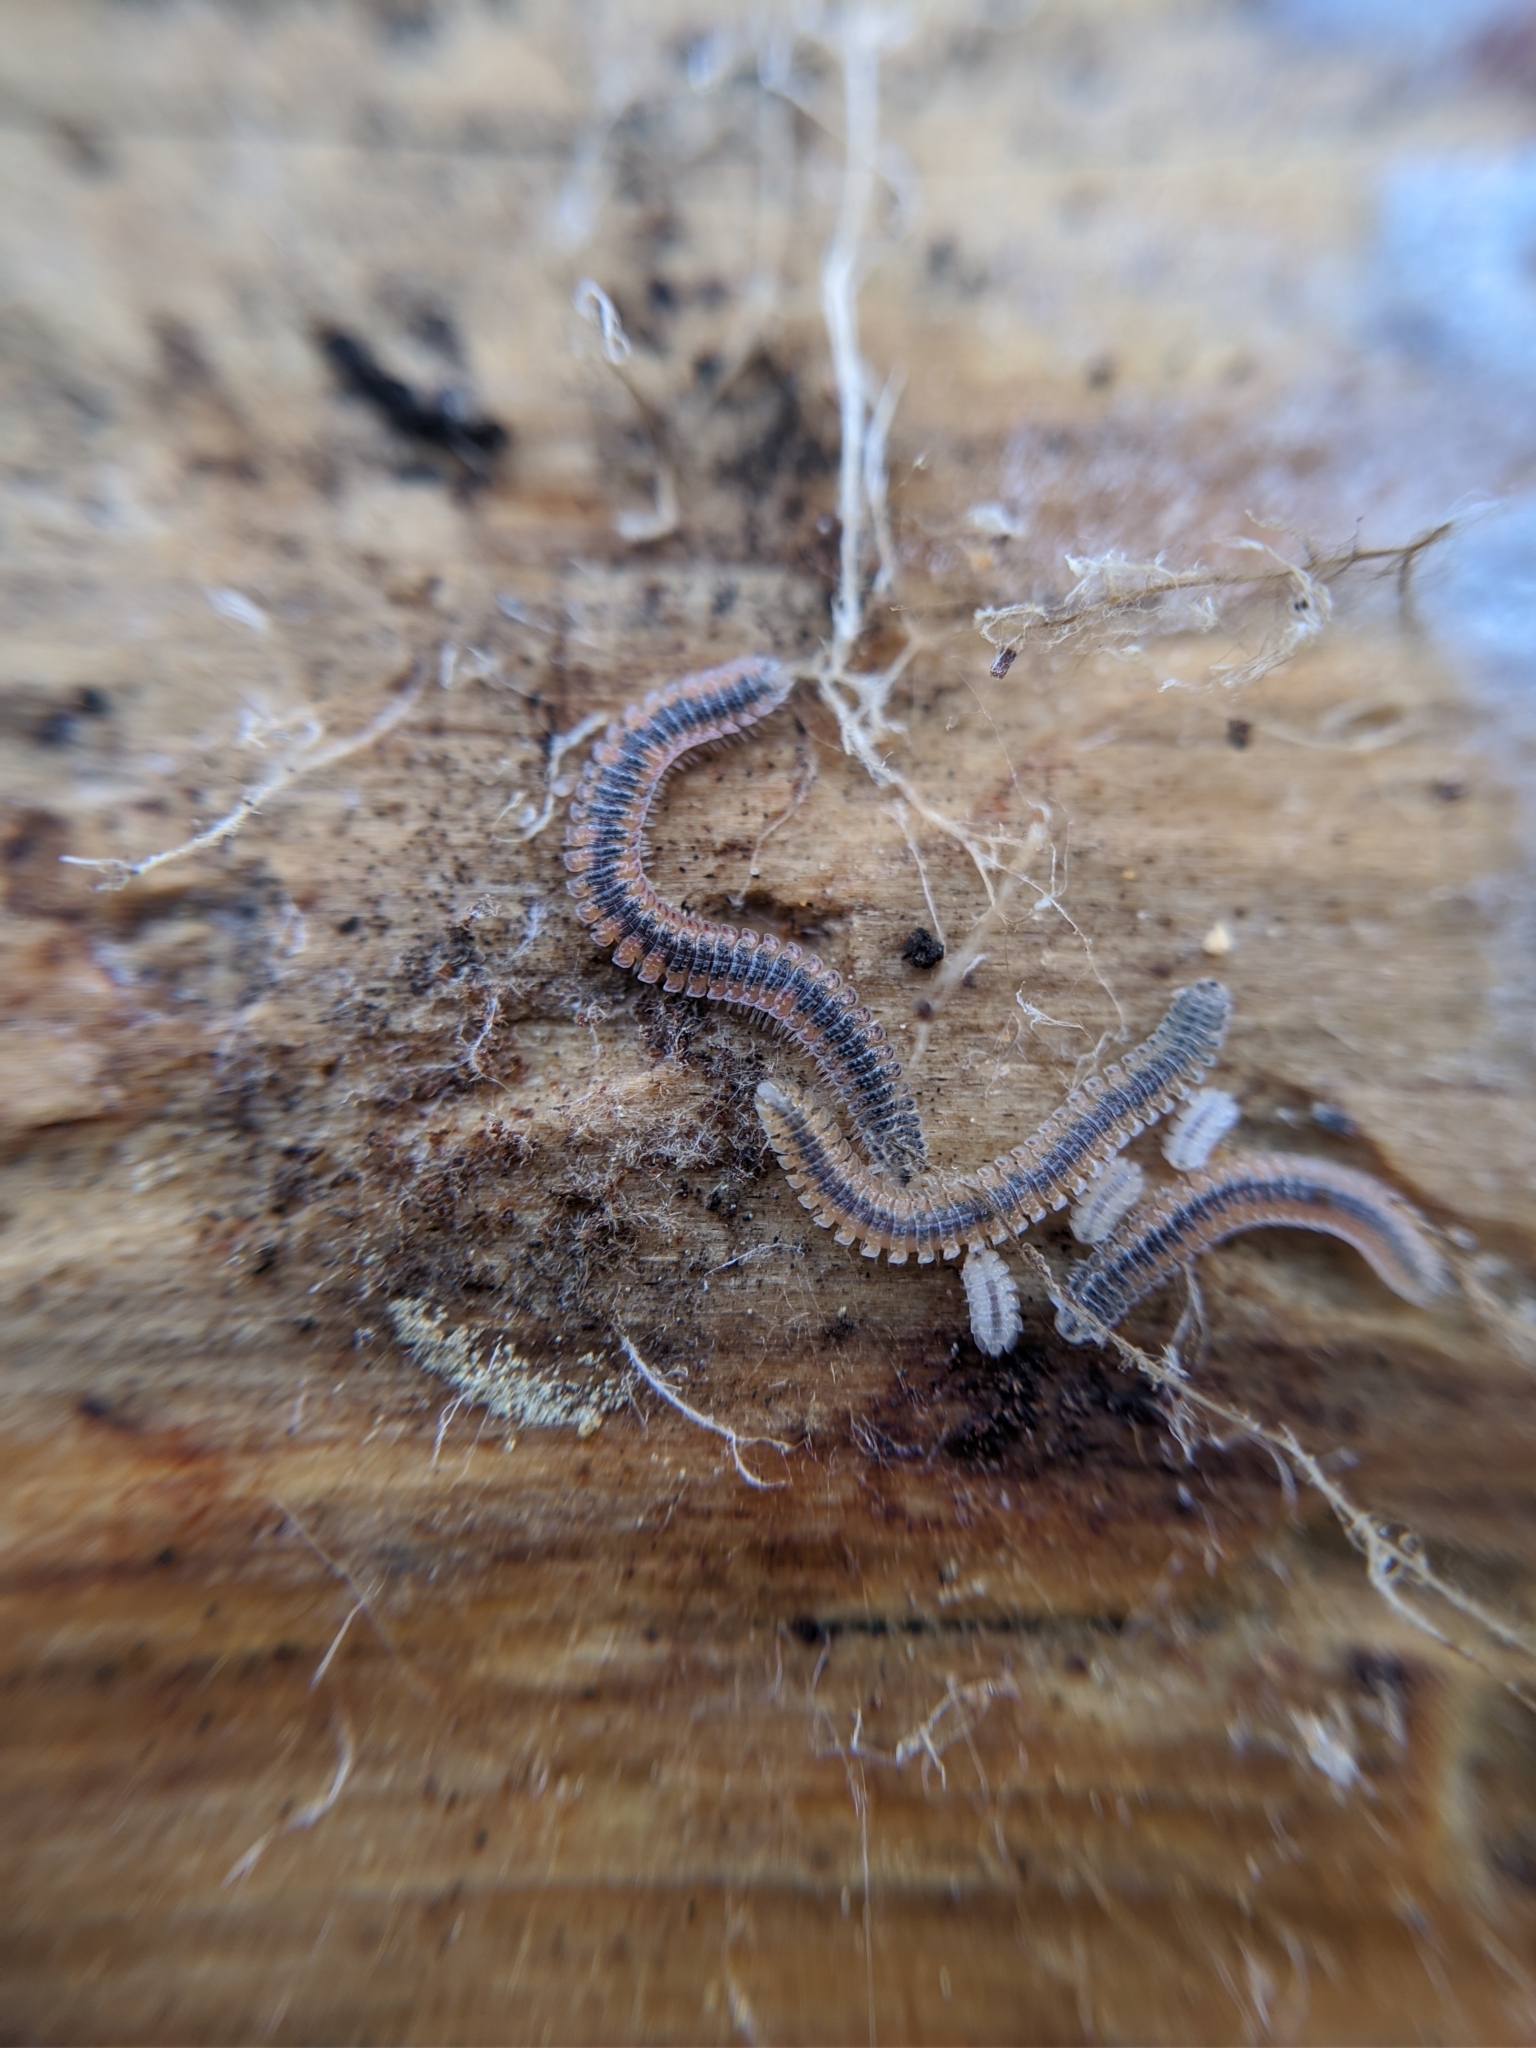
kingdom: Animalia
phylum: Arthropoda
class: Diplopoda
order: Platydesmida
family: Andrognathidae
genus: Gosodesmus
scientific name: Gosodesmus claremontus
